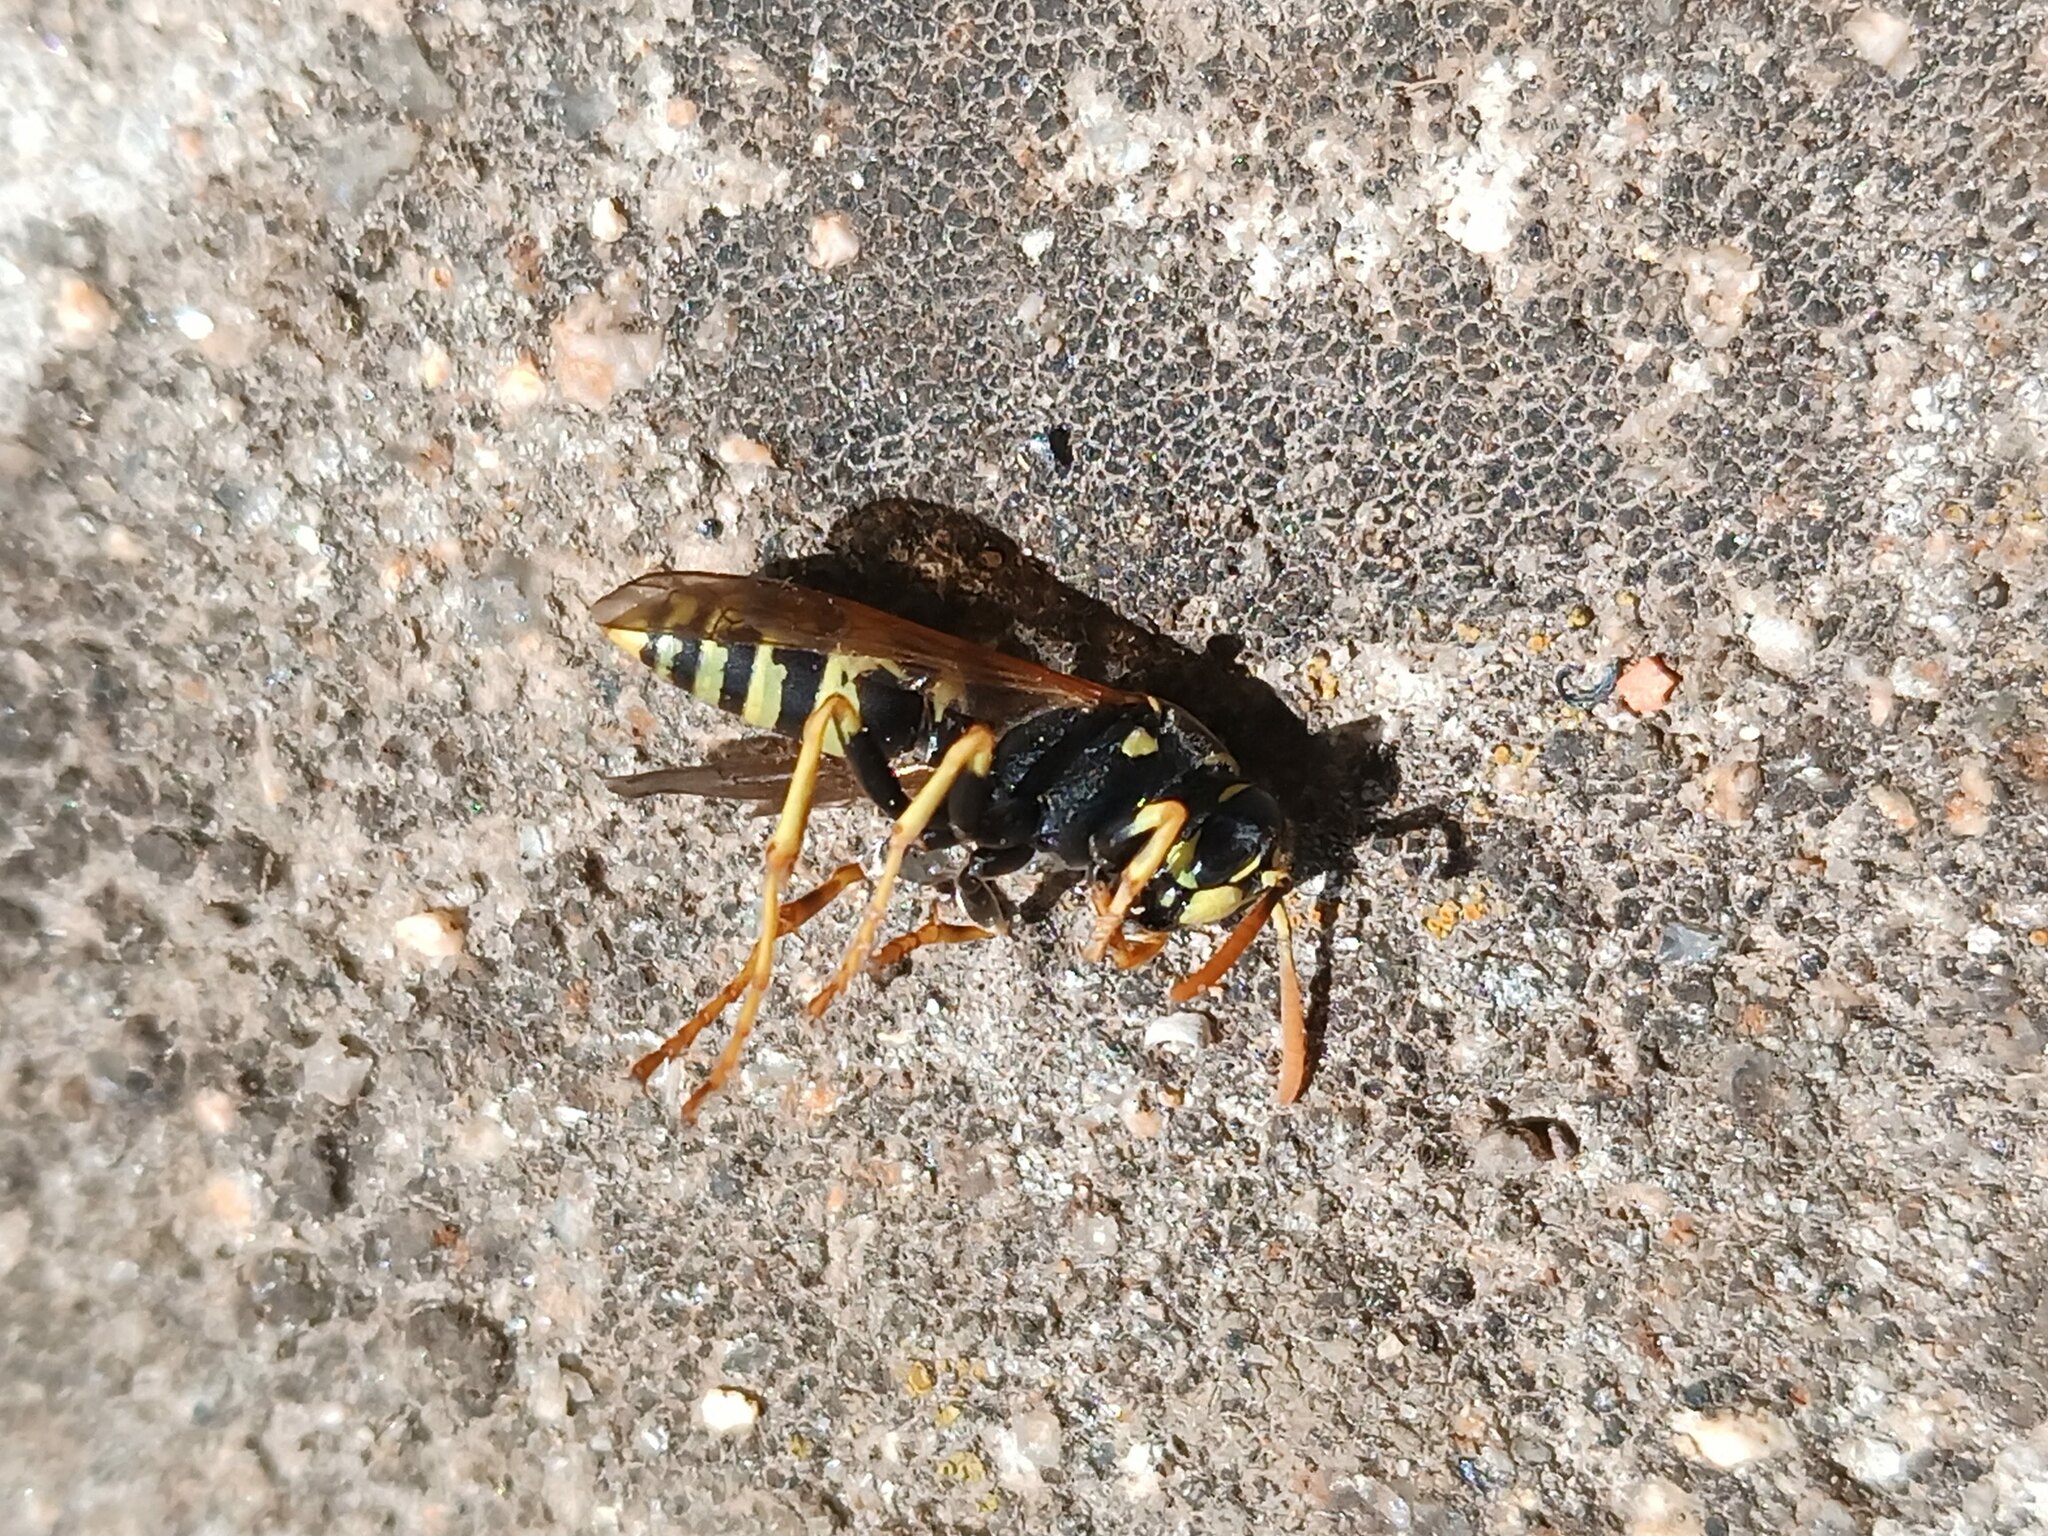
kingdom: Animalia
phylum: Arthropoda
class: Insecta
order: Hymenoptera
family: Eumenidae
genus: Polistes
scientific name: Polistes dominula
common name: Paper wasp
